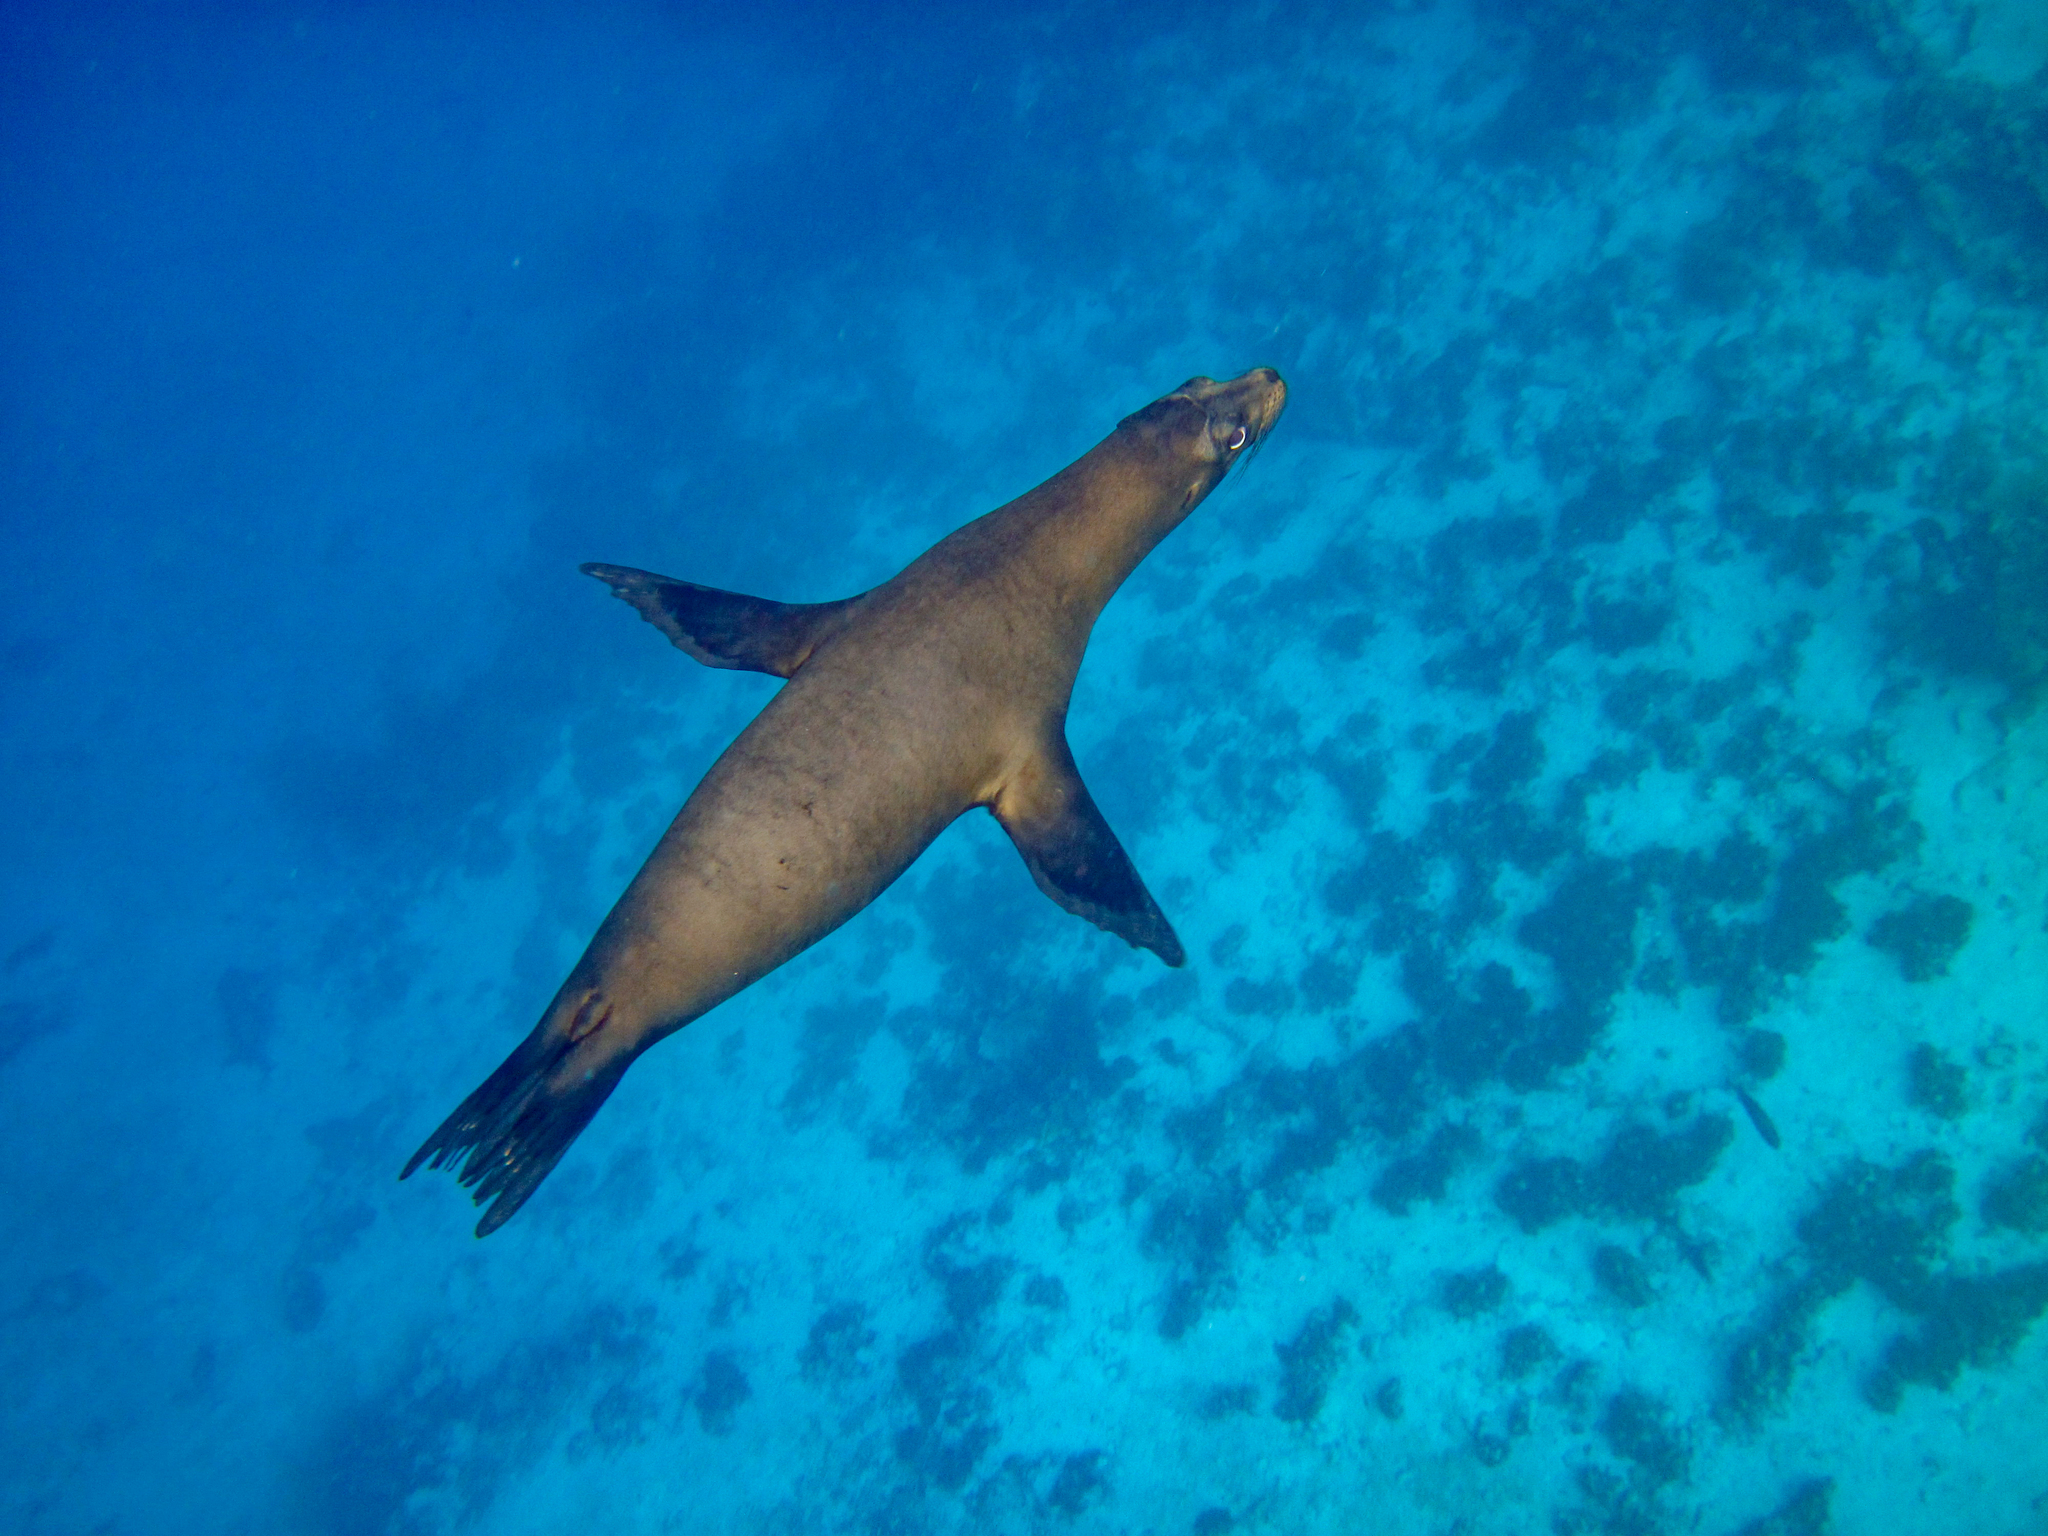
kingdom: Animalia
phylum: Chordata
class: Mammalia
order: Carnivora
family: Otariidae
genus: Zalophus
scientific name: Zalophus wollebaeki
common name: Galapagos sea lion
